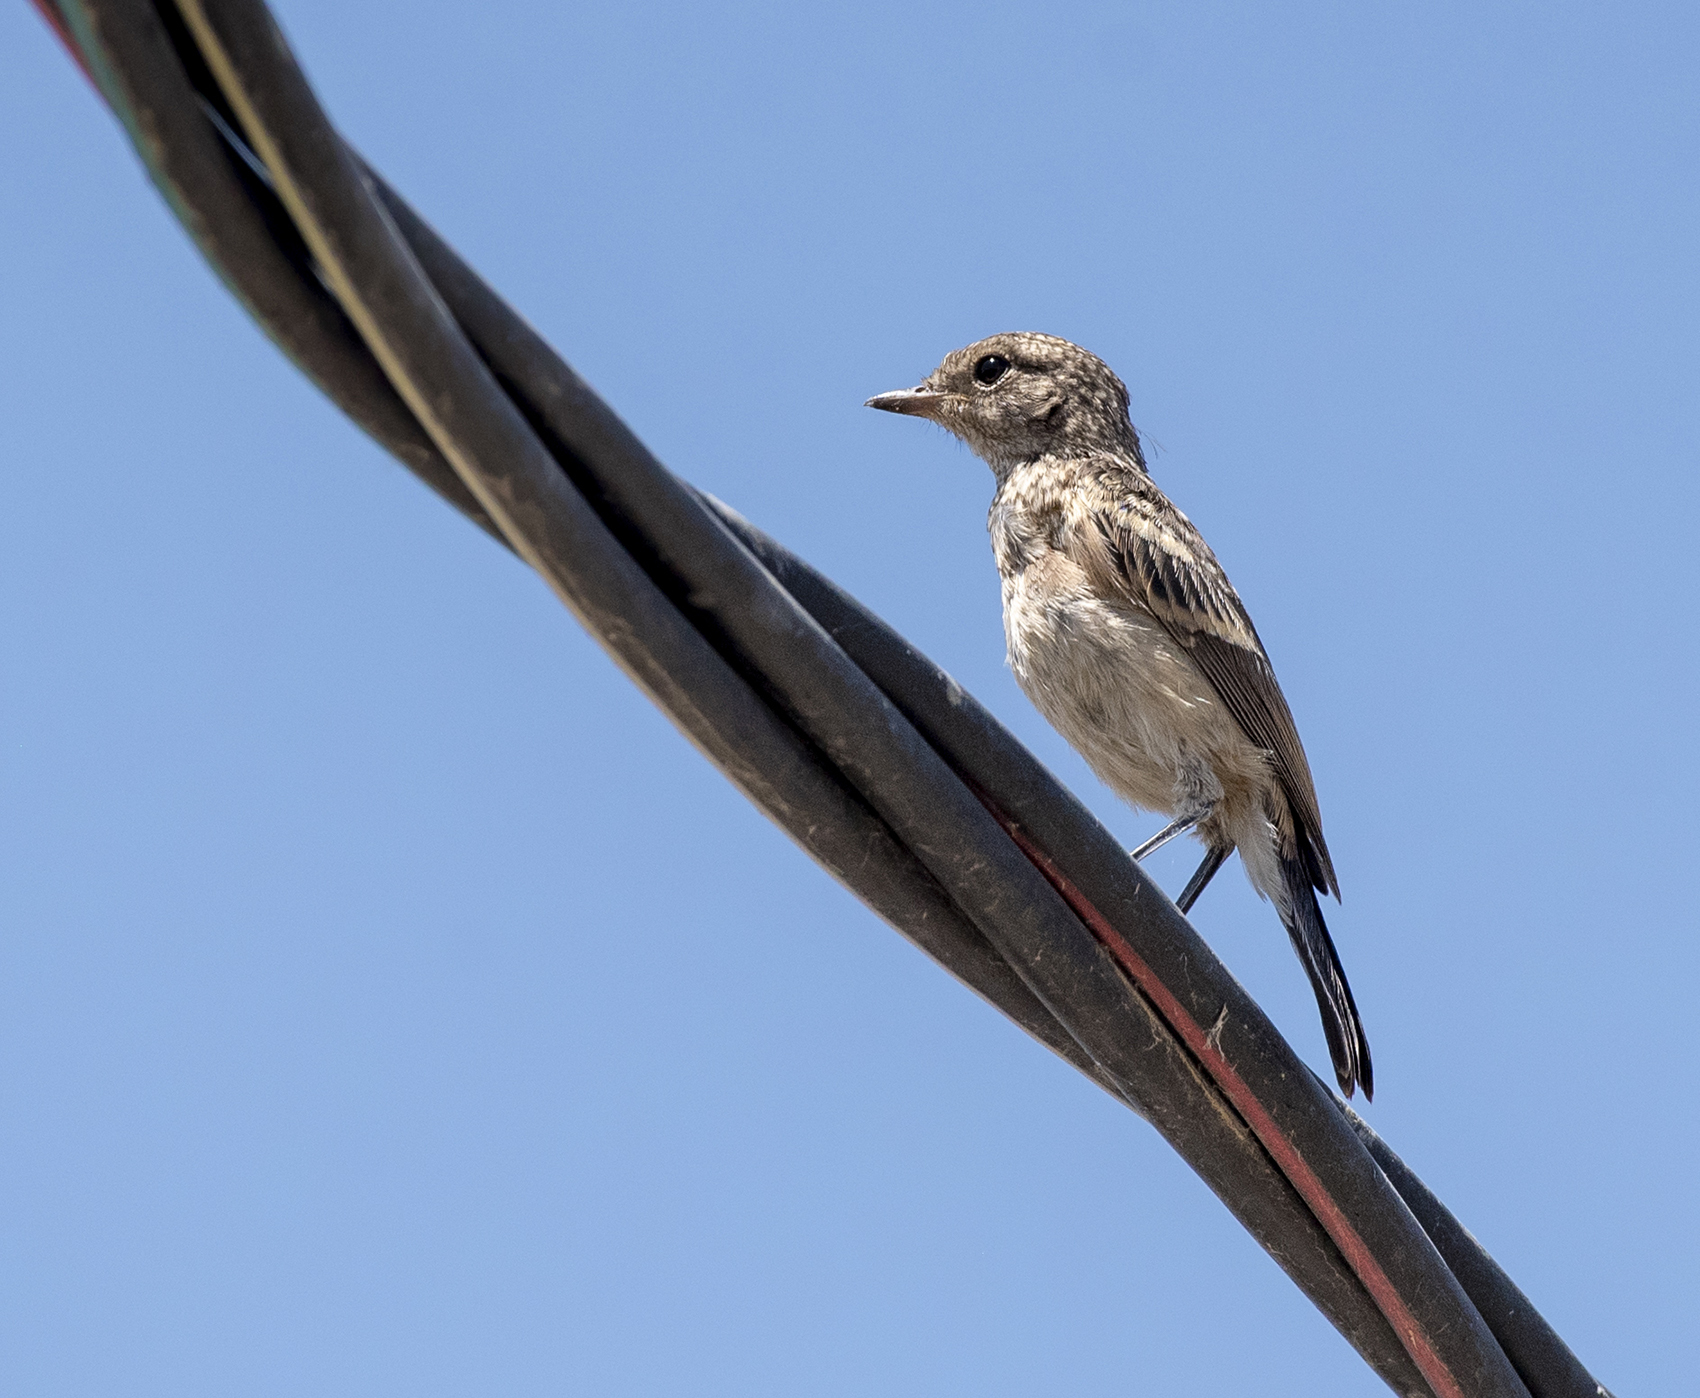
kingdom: Animalia
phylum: Chordata
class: Aves
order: Passeriformes
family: Muscicapidae
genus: Saxicola
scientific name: Saxicola caprata
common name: Pied bush chat
